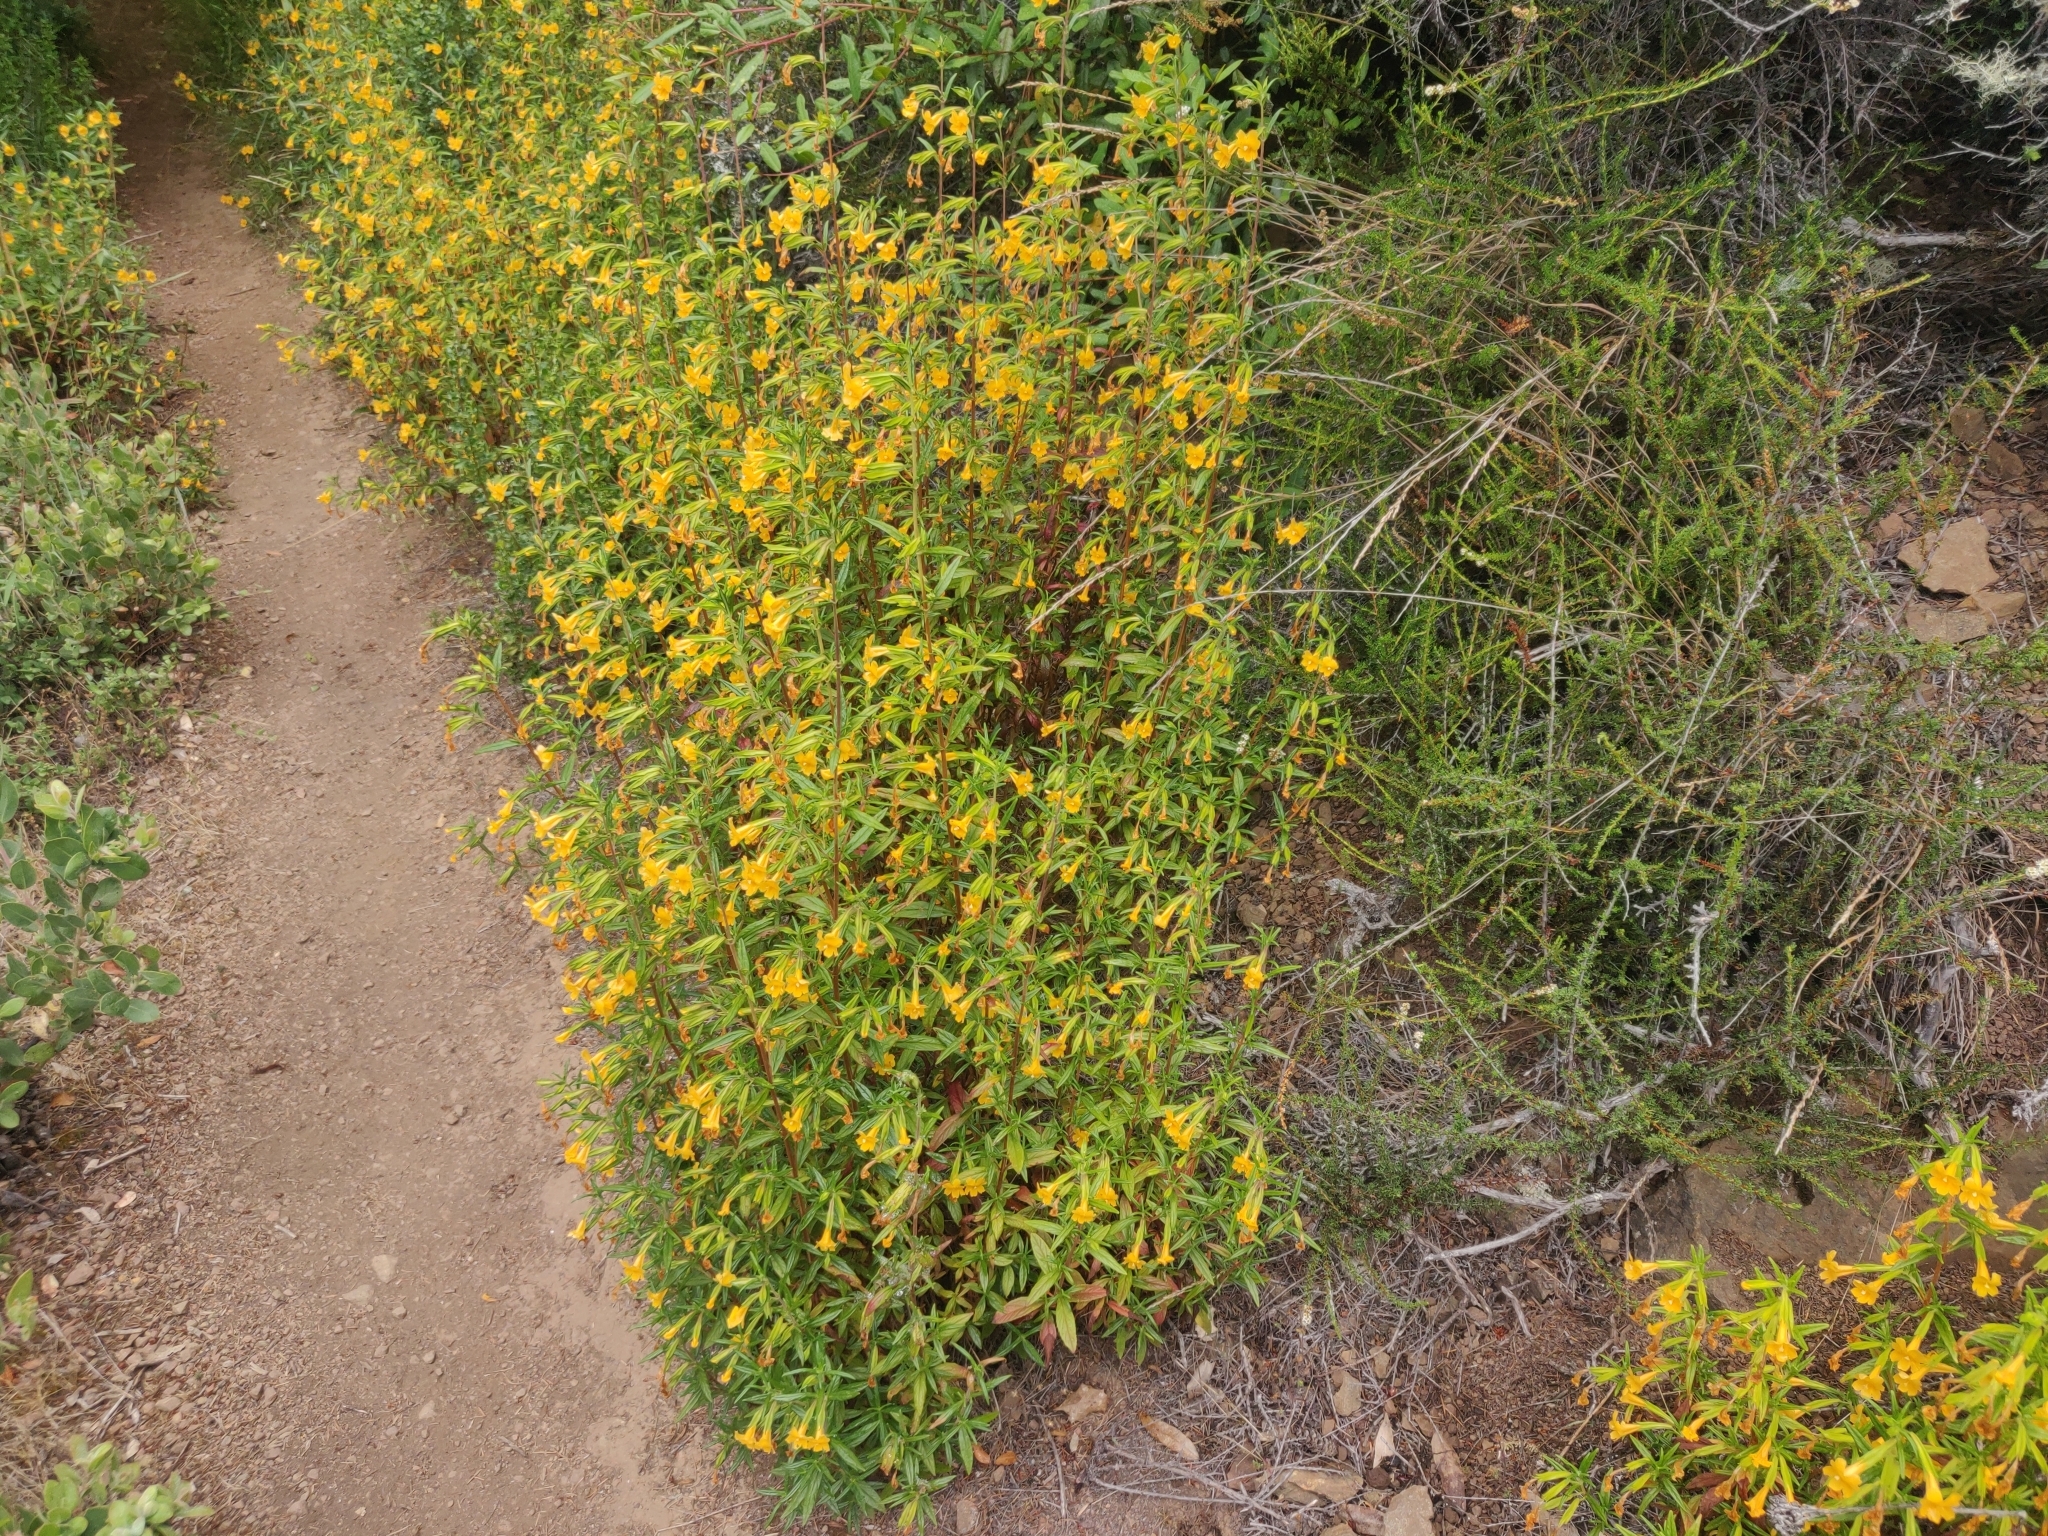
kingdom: Plantae
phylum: Tracheophyta
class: Magnoliopsida
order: Lamiales
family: Phrymaceae
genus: Diplacus
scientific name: Diplacus aurantiacus
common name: Bush monkey-flower
